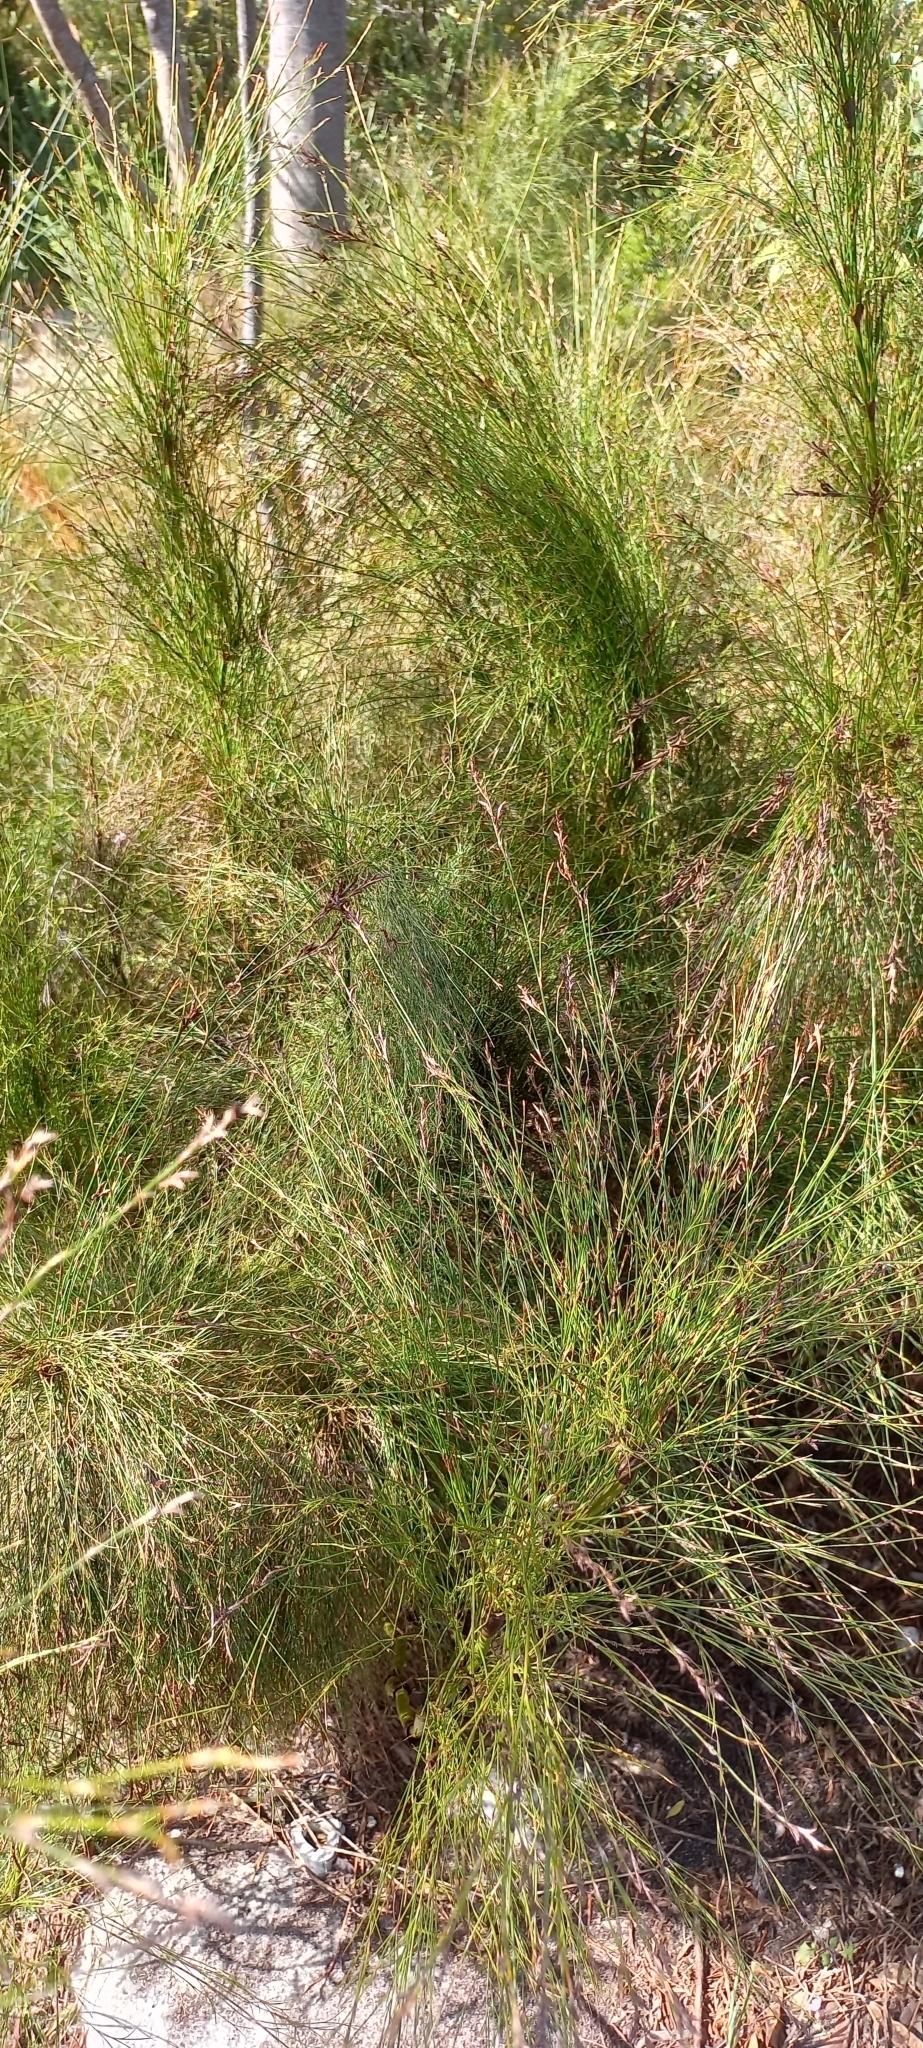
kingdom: Plantae
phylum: Tracheophyta
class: Liliopsida
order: Poales
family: Restionaceae
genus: Restio
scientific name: Restio subverticillatus
